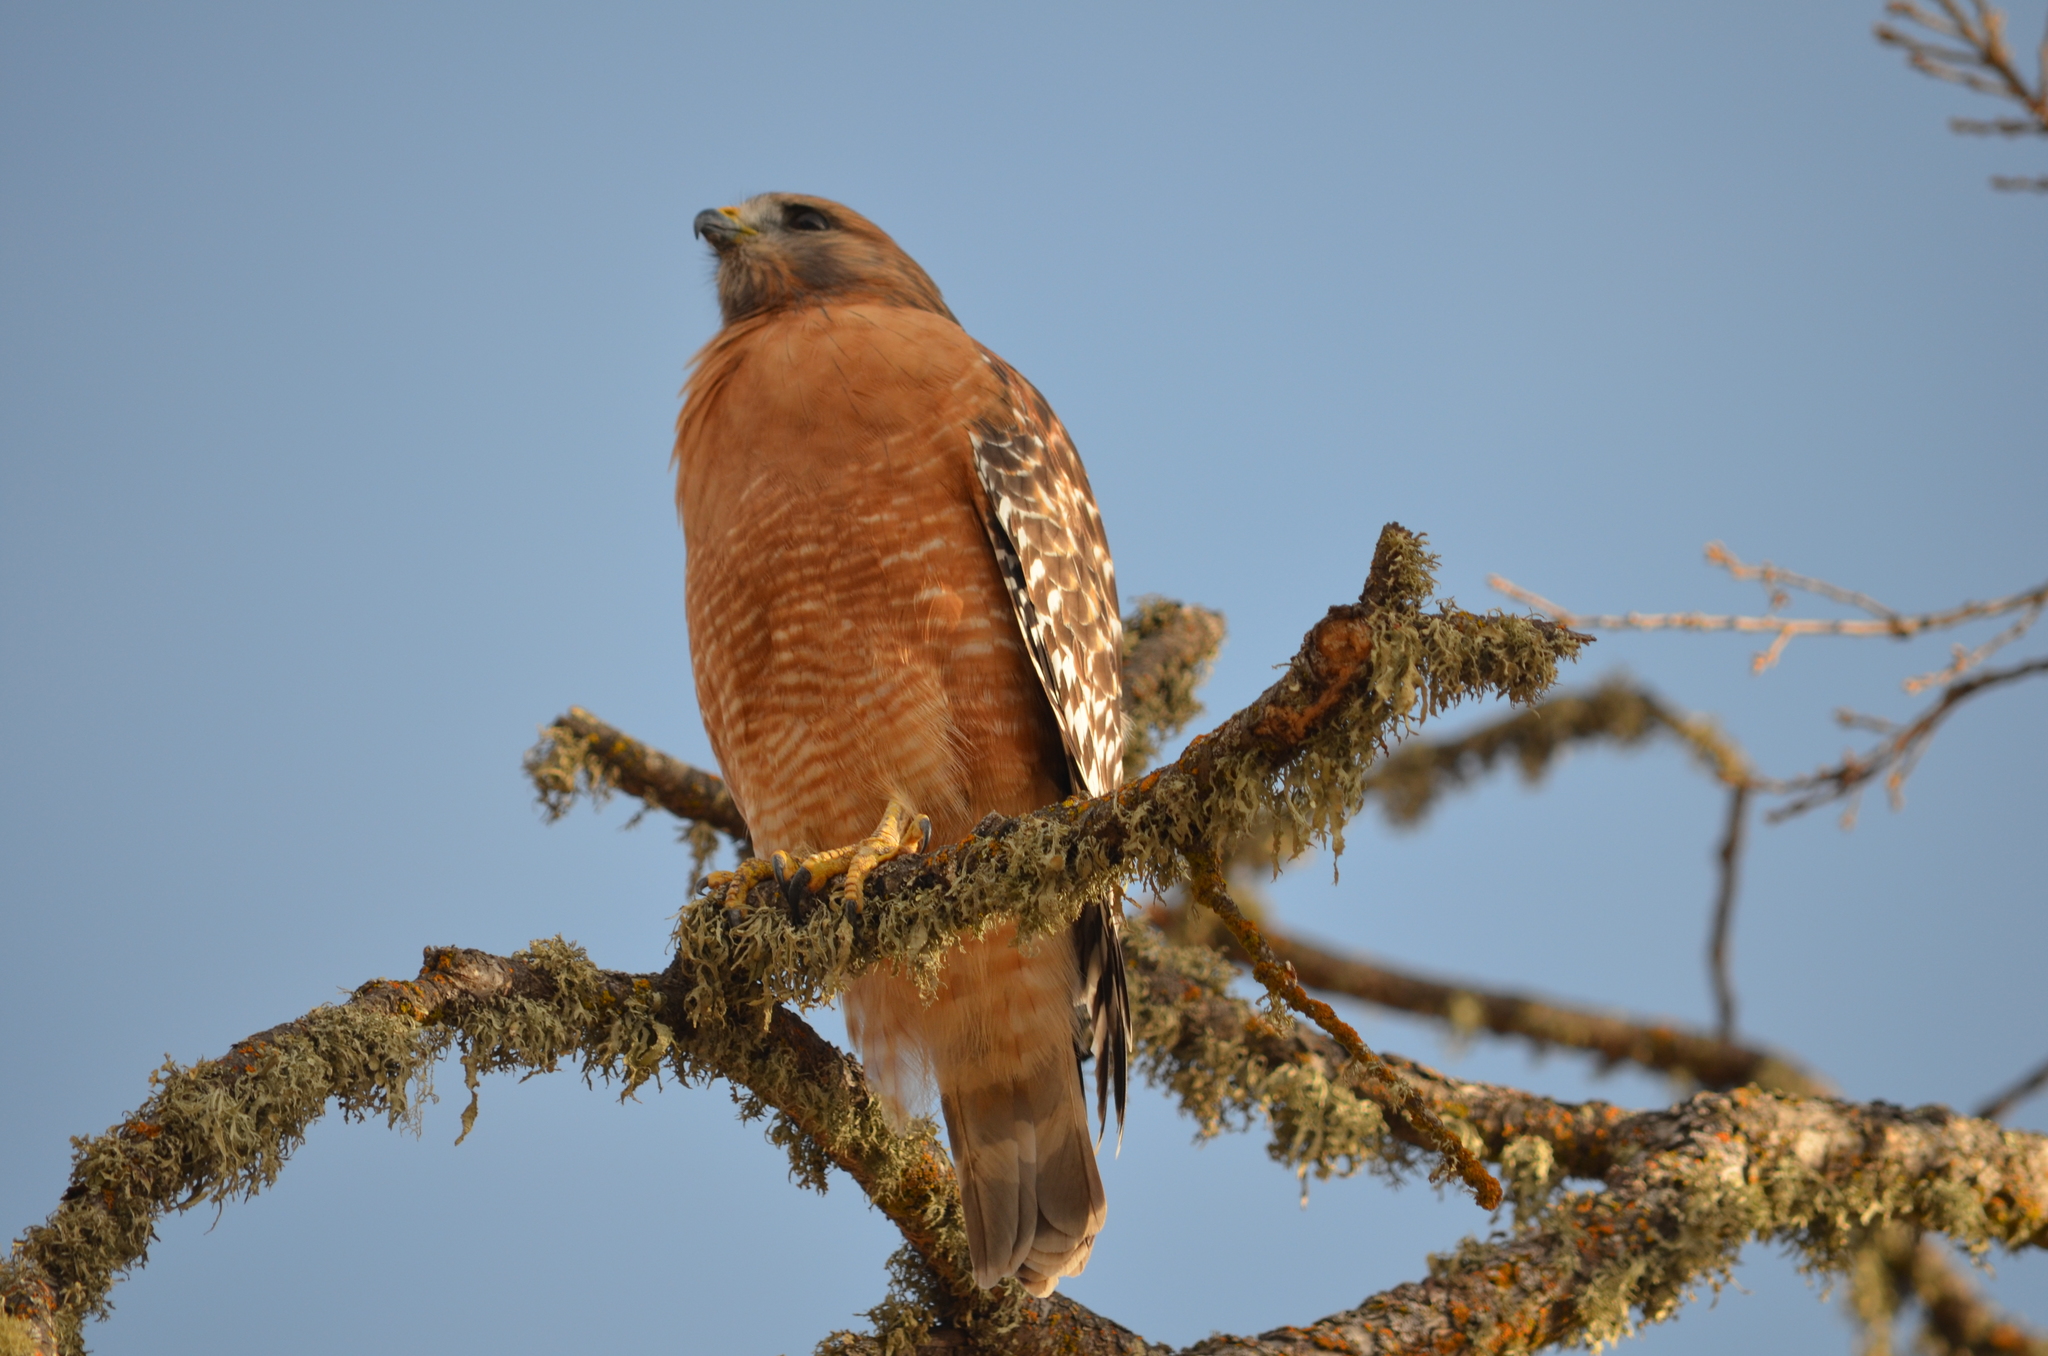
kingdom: Animalia
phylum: Chordata
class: Aves
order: Accipitriformes
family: Accipitridae
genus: Buteo
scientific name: Buteo lineatus
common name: Red-shouldered hawk
